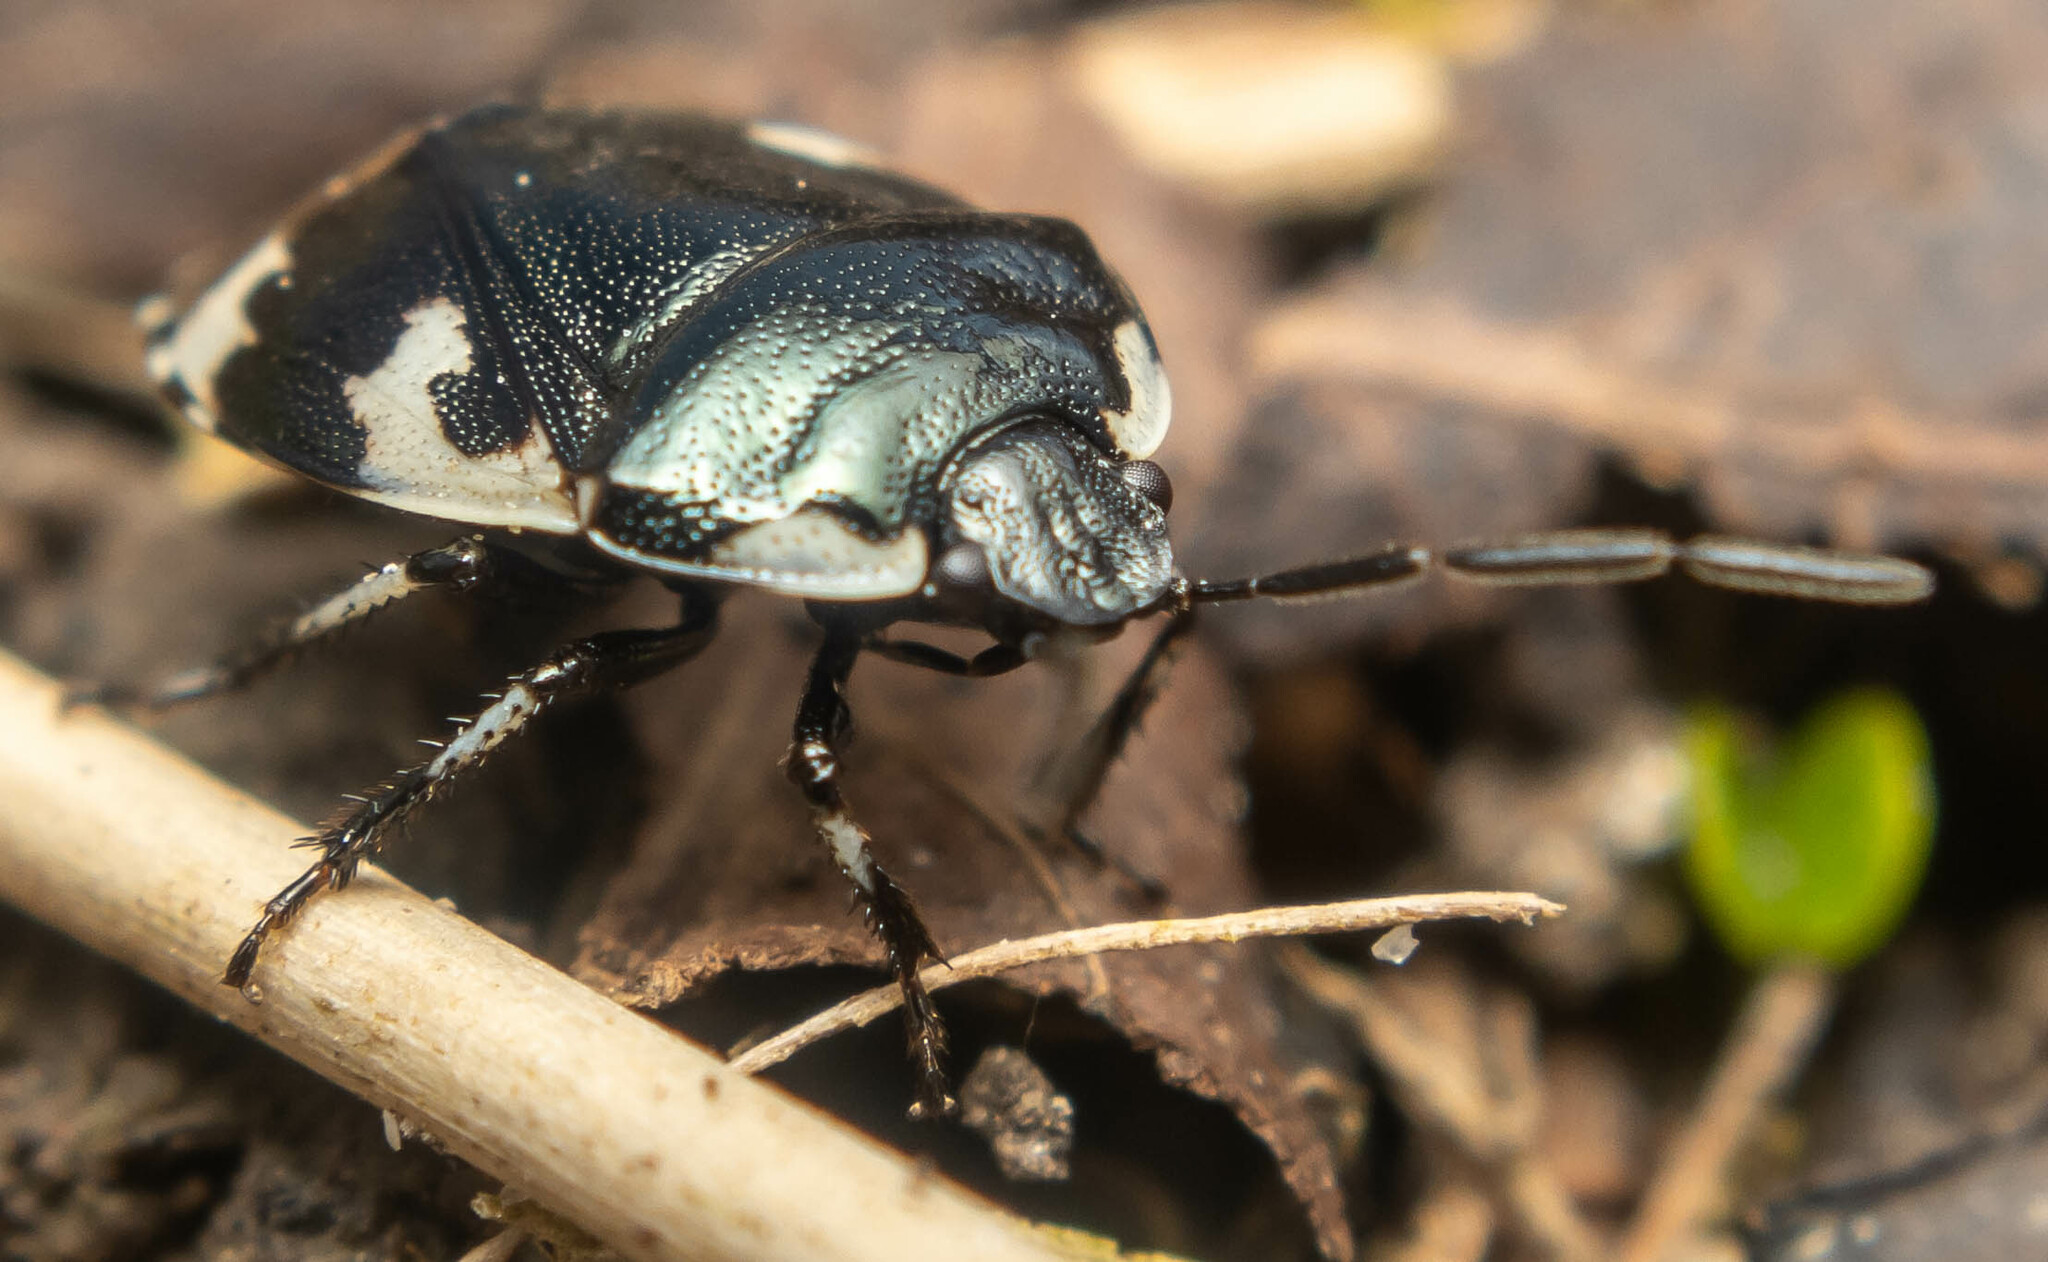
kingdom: Animalia
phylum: Arthropoda
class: Insecta
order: Hemiptera
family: Cydnidae
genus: Tritomegas
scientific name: Tritomegas bicolor
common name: Pied shieldbug
